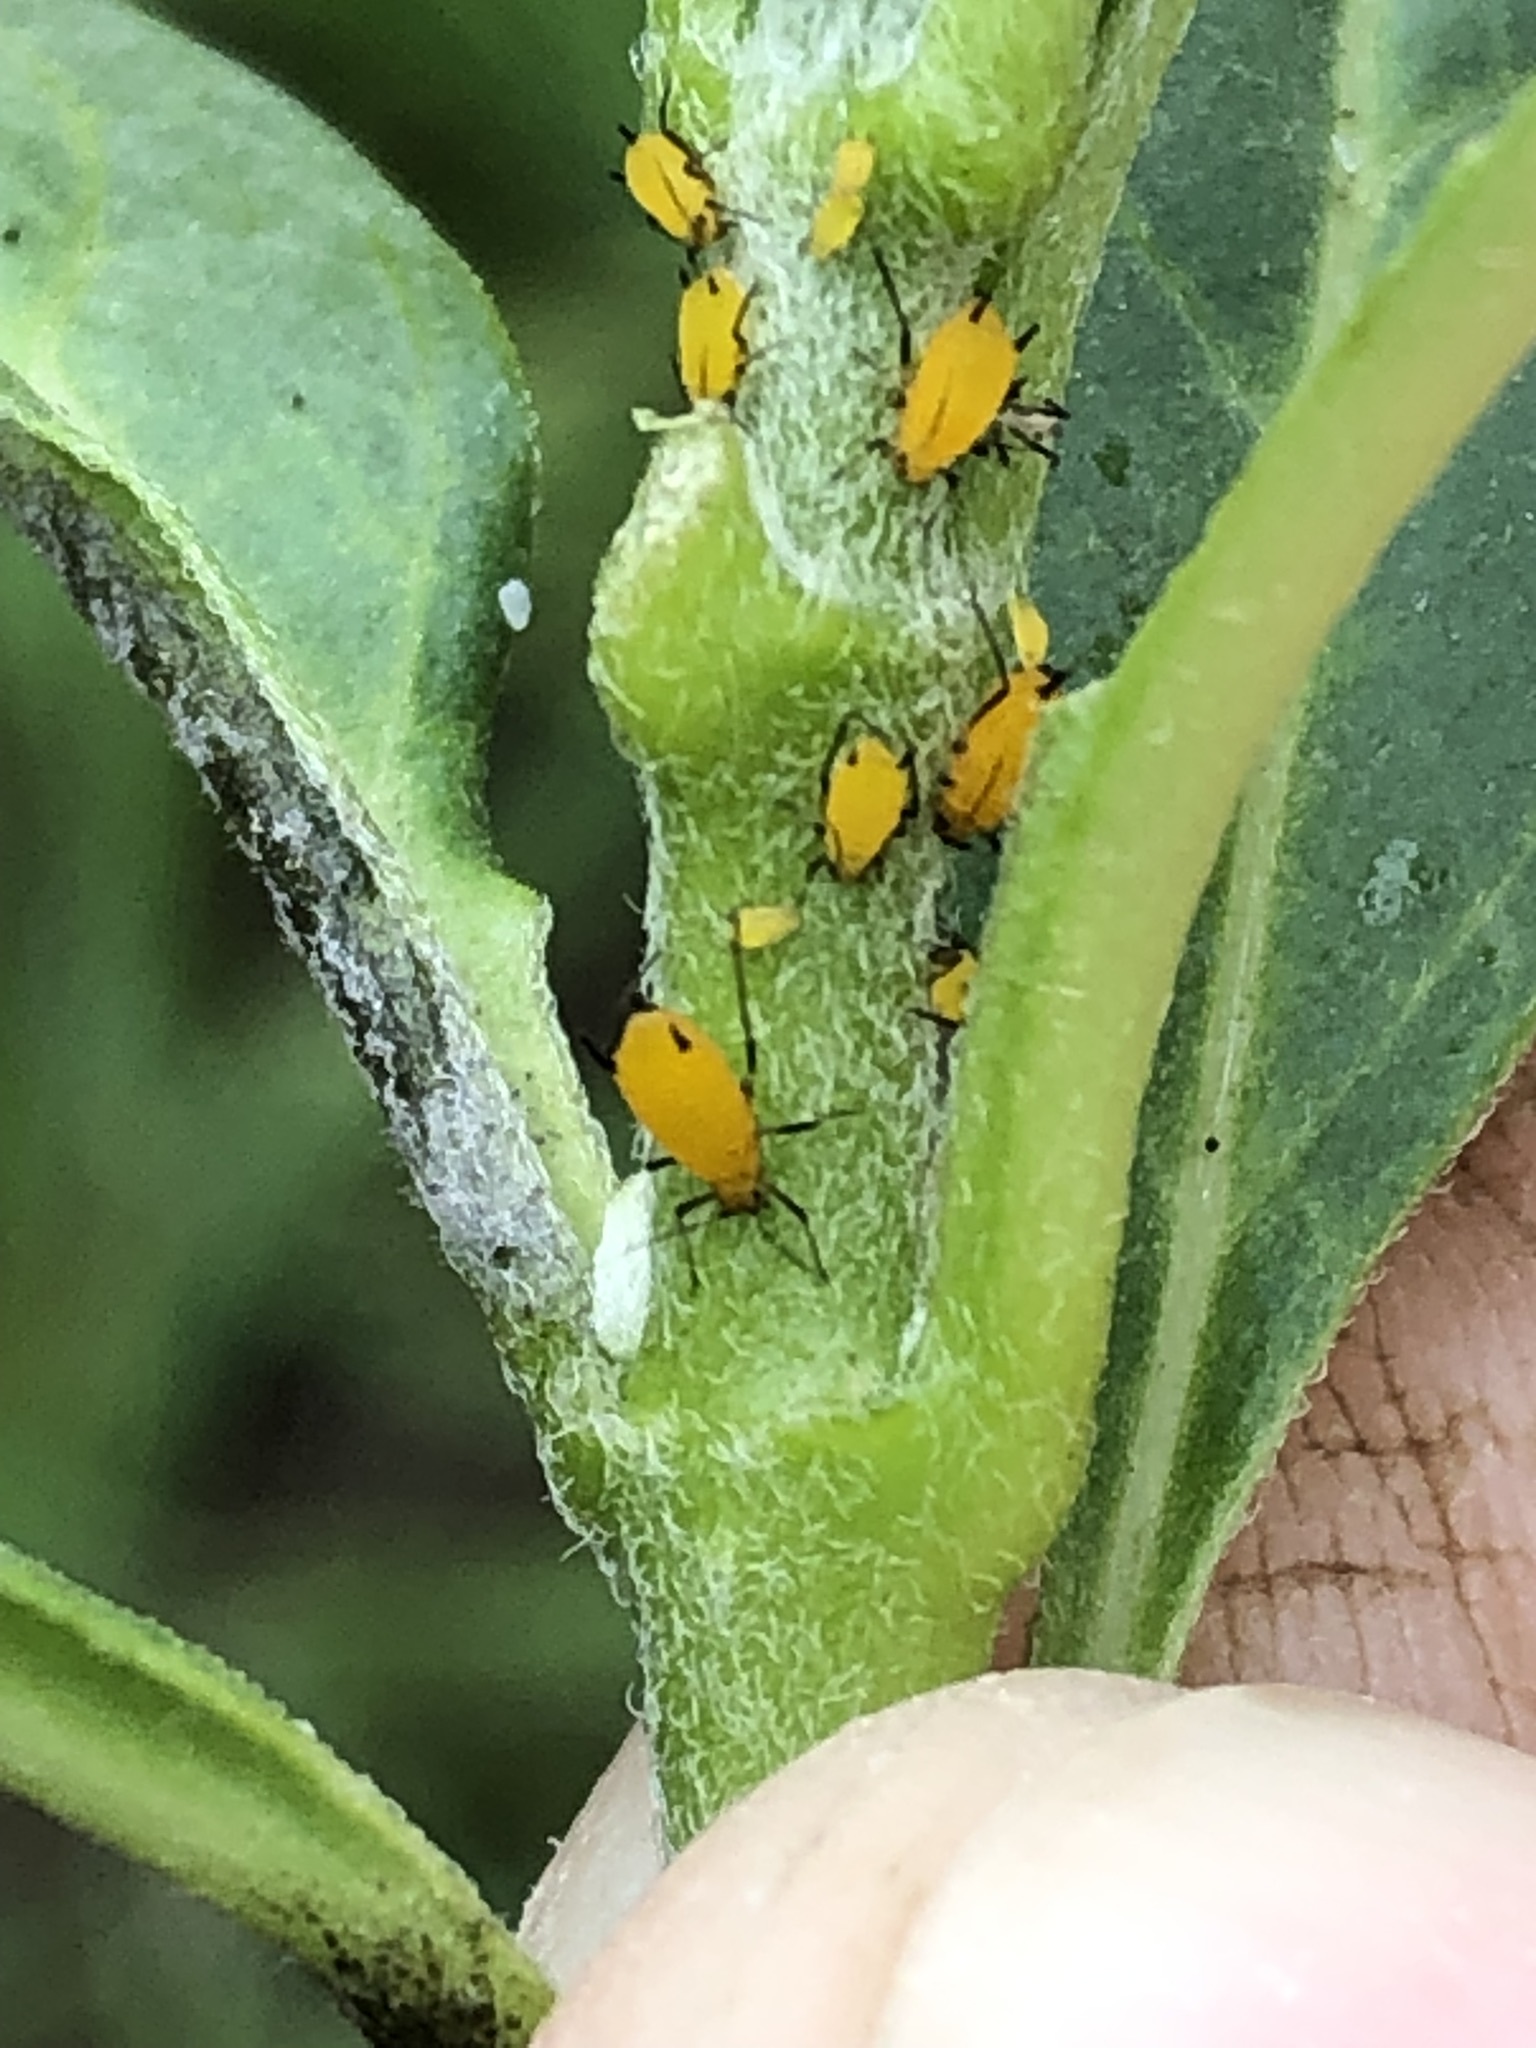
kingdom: Animalia
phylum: Arthropoda
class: Insecta
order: Hemiptera
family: Aphididae
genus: Aphis
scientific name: Aphis nerii
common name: Oleander aphid
